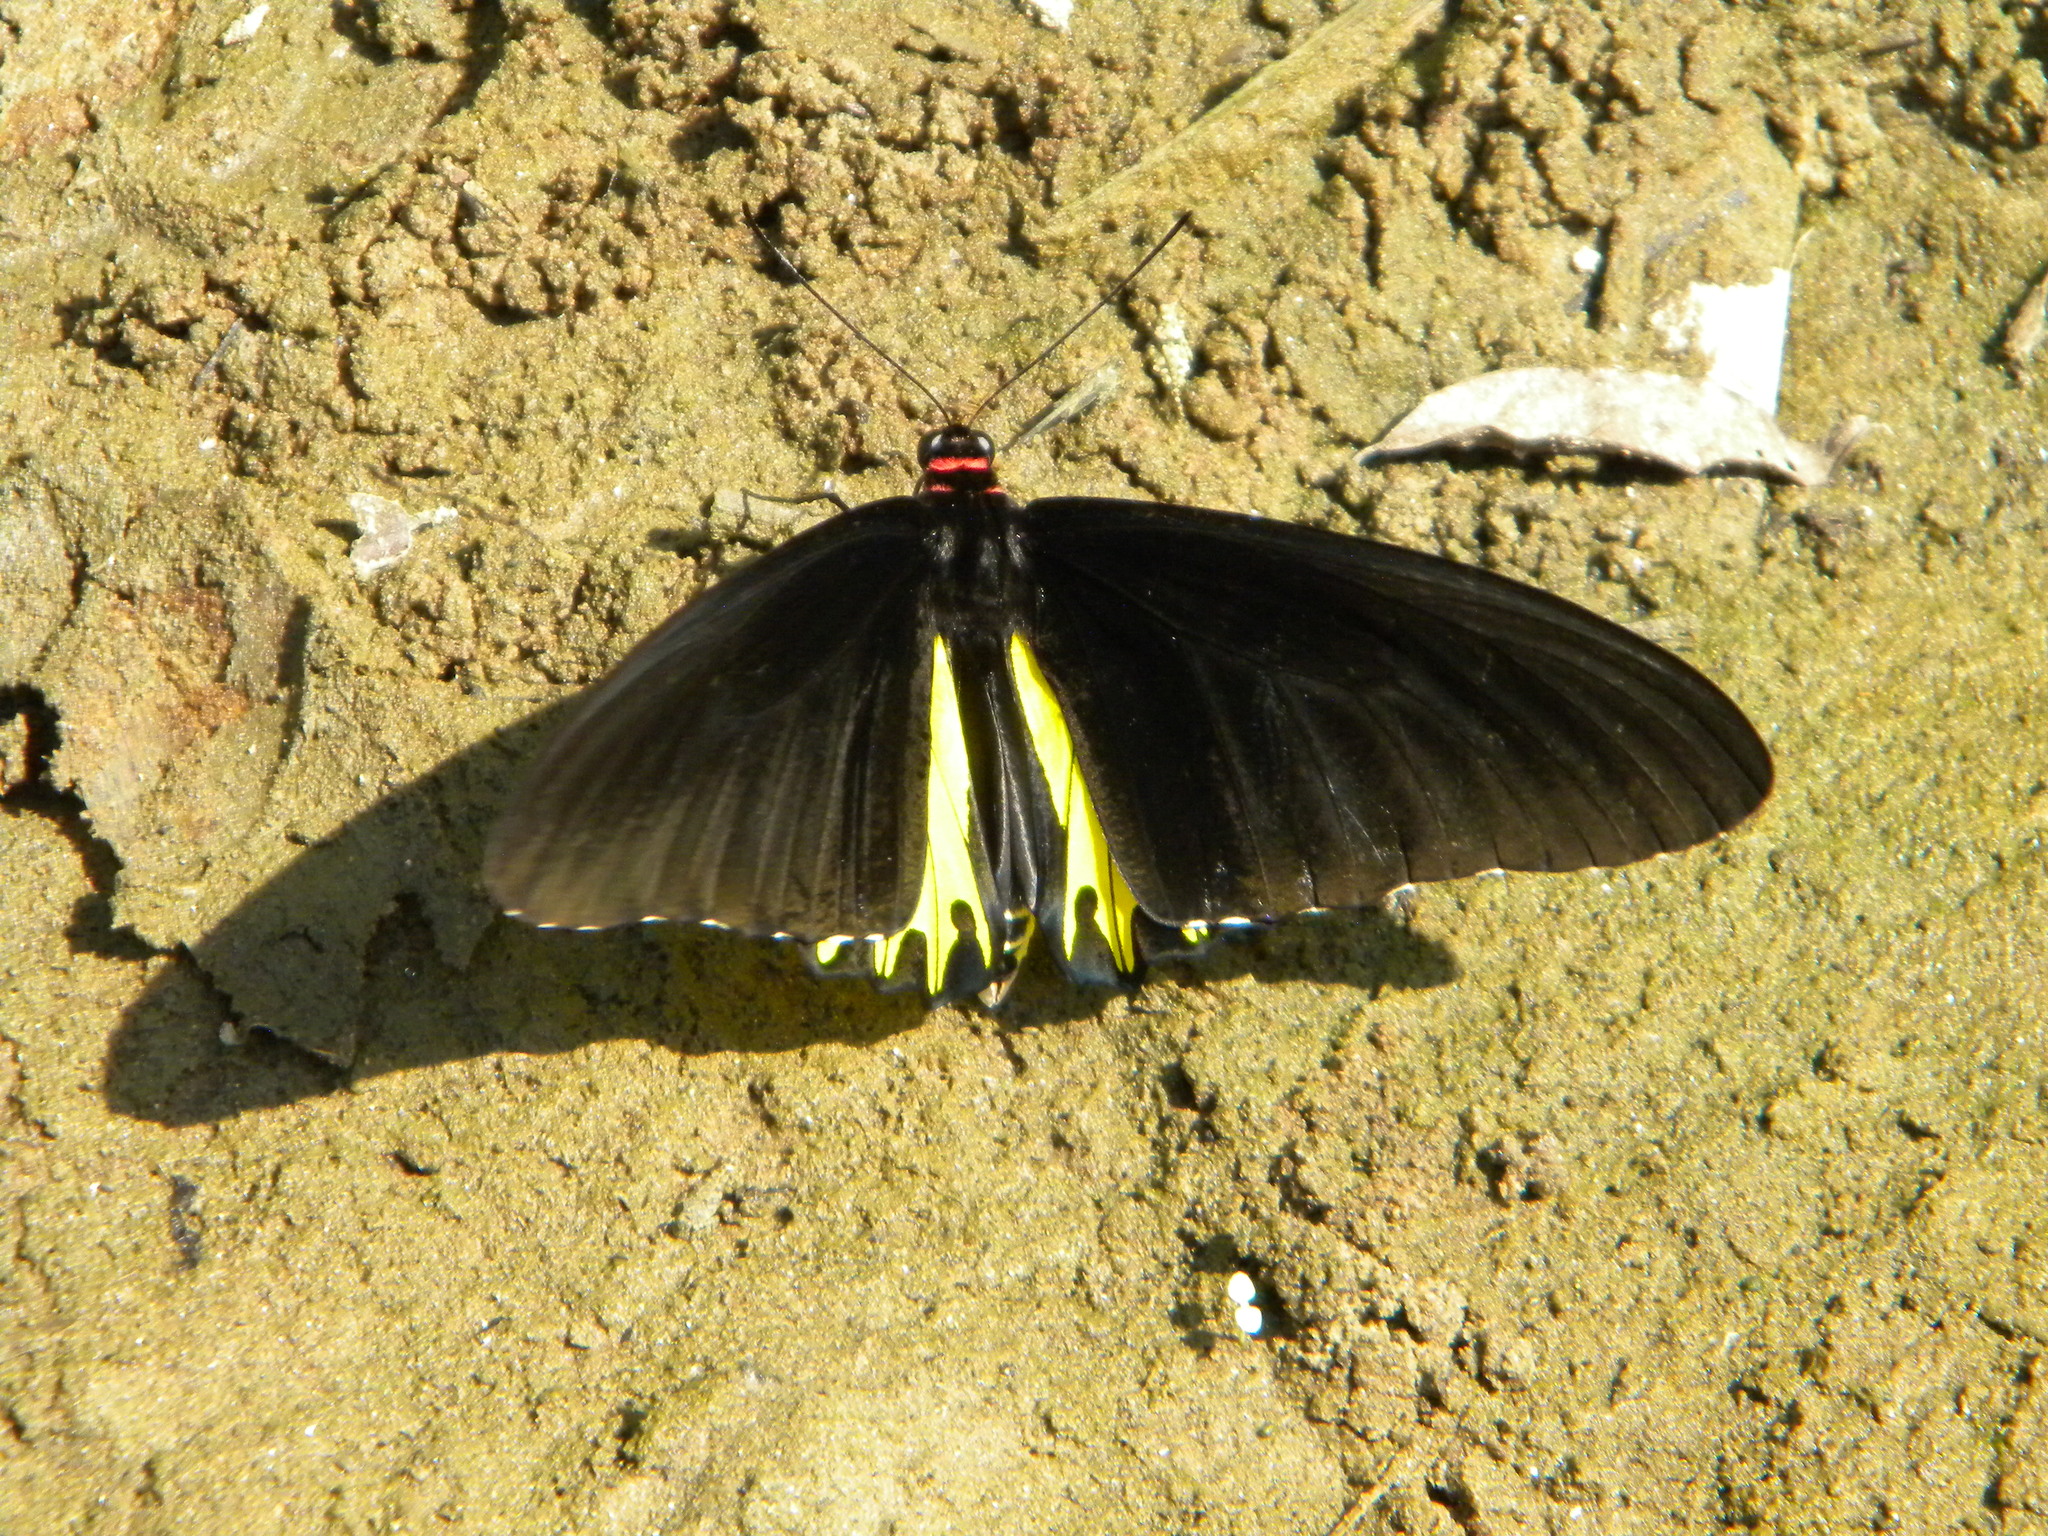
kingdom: Animalia
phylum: Arthropoda
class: Insecta
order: Lepidoptera
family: Papilionidae
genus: Troides
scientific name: Troides helena
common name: Common birdwing
